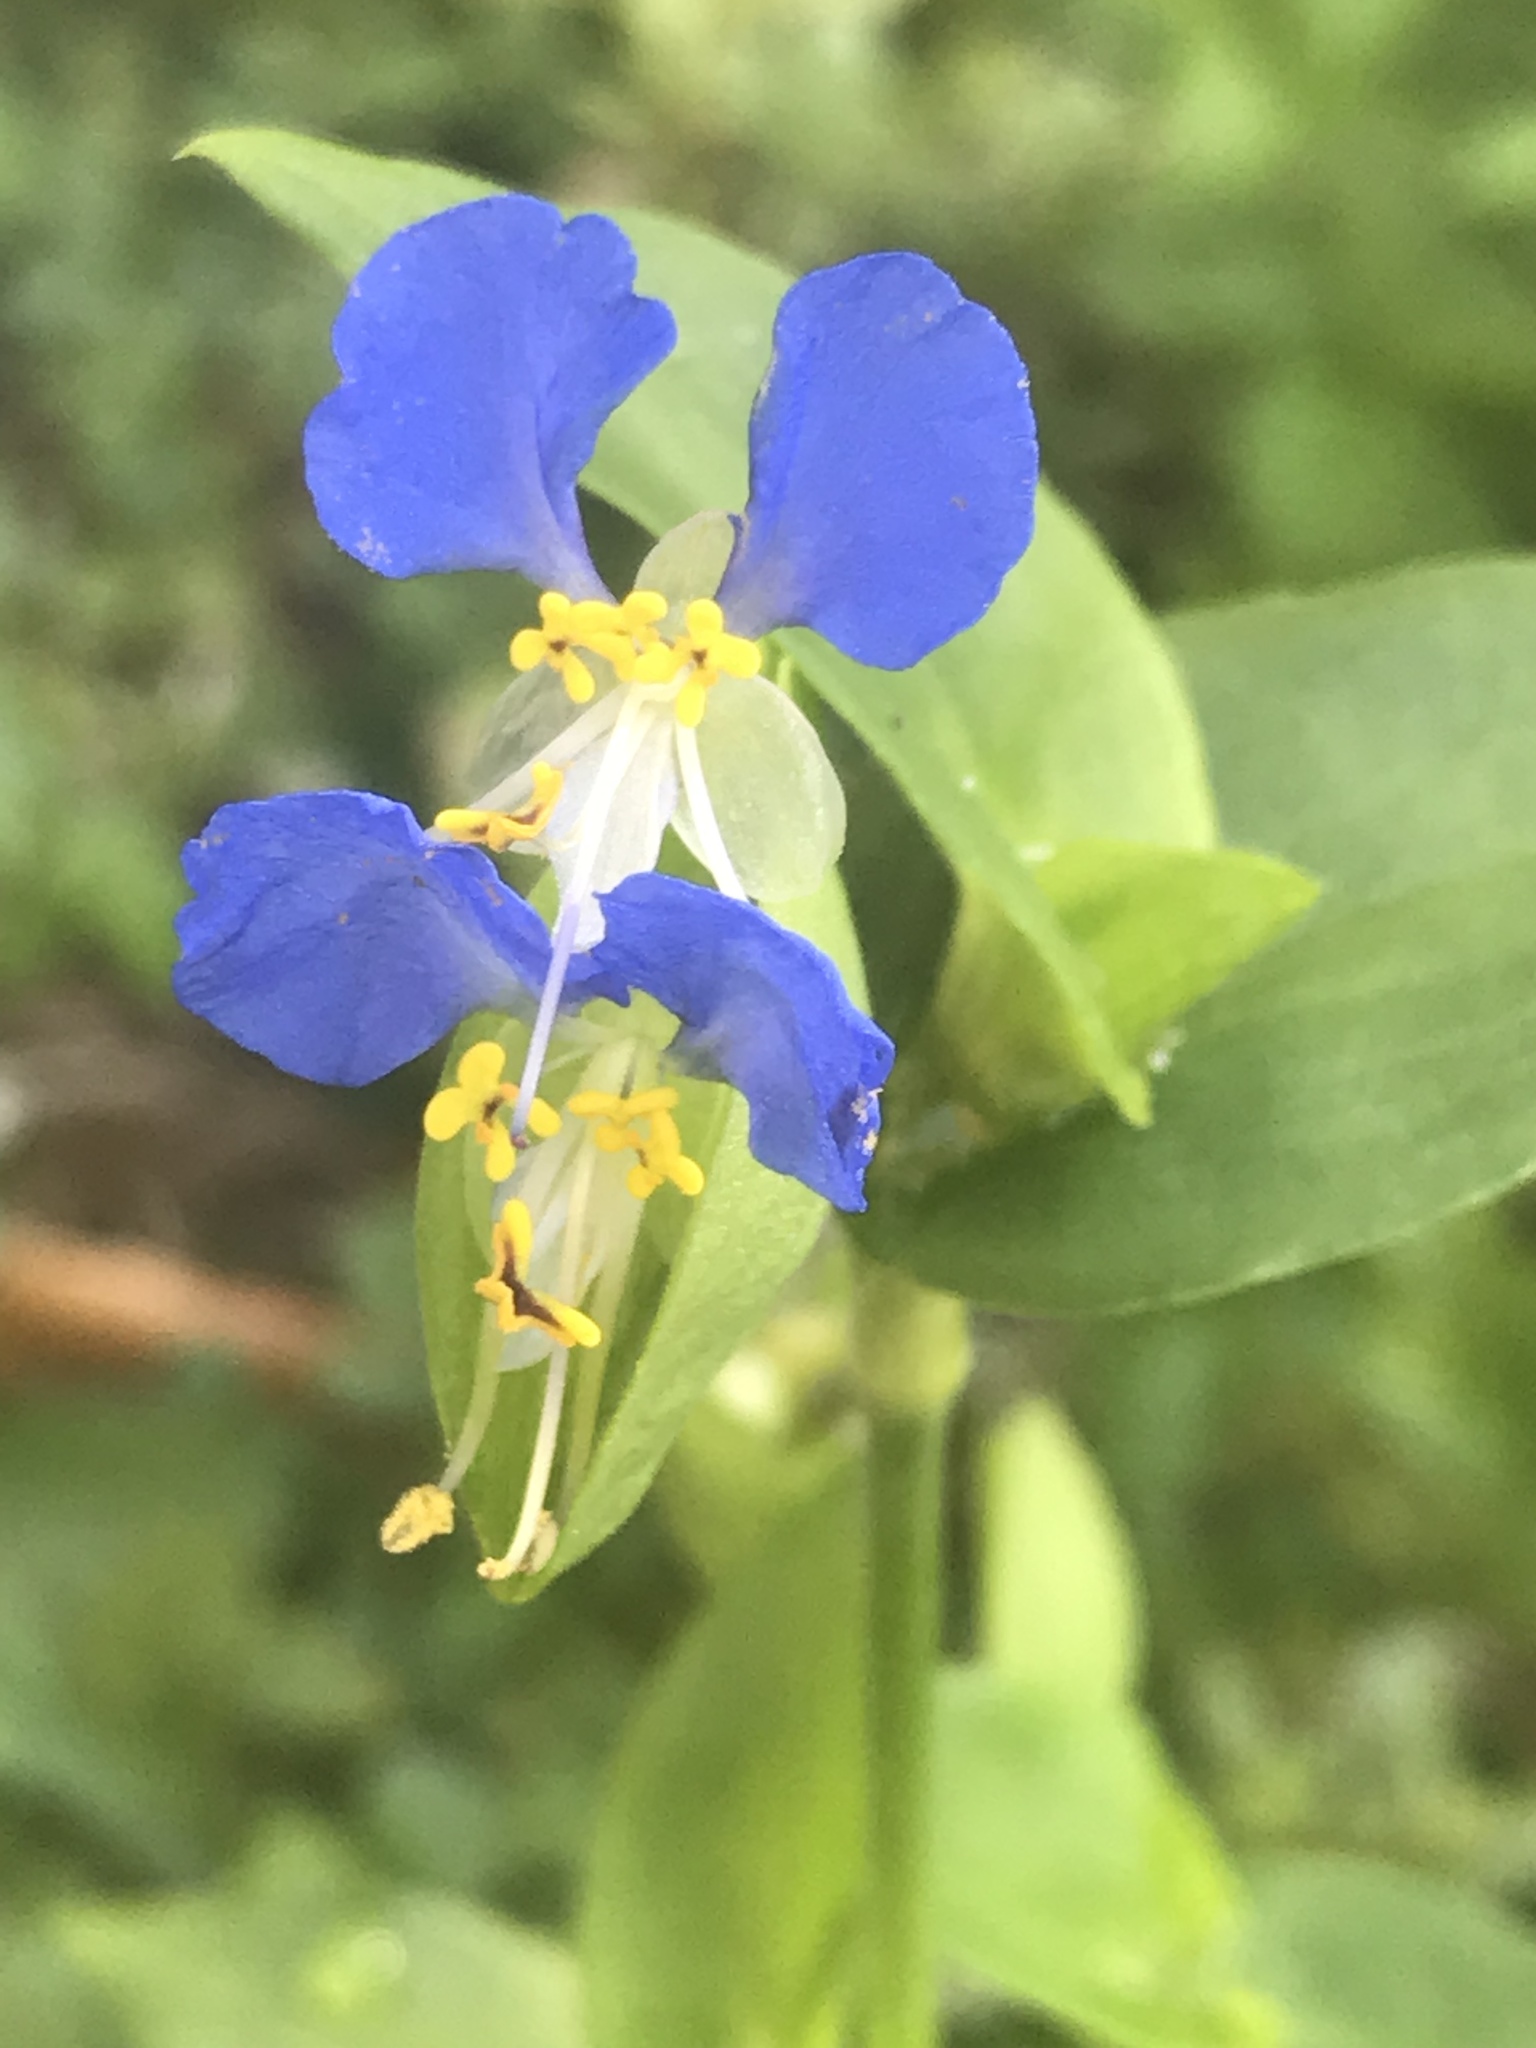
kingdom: Plantae
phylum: Tracheophyta
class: Liliopsida
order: Commelinales
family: Commelinaceae
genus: Commelina
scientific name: Commelina communis
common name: Asiatic dayflower
